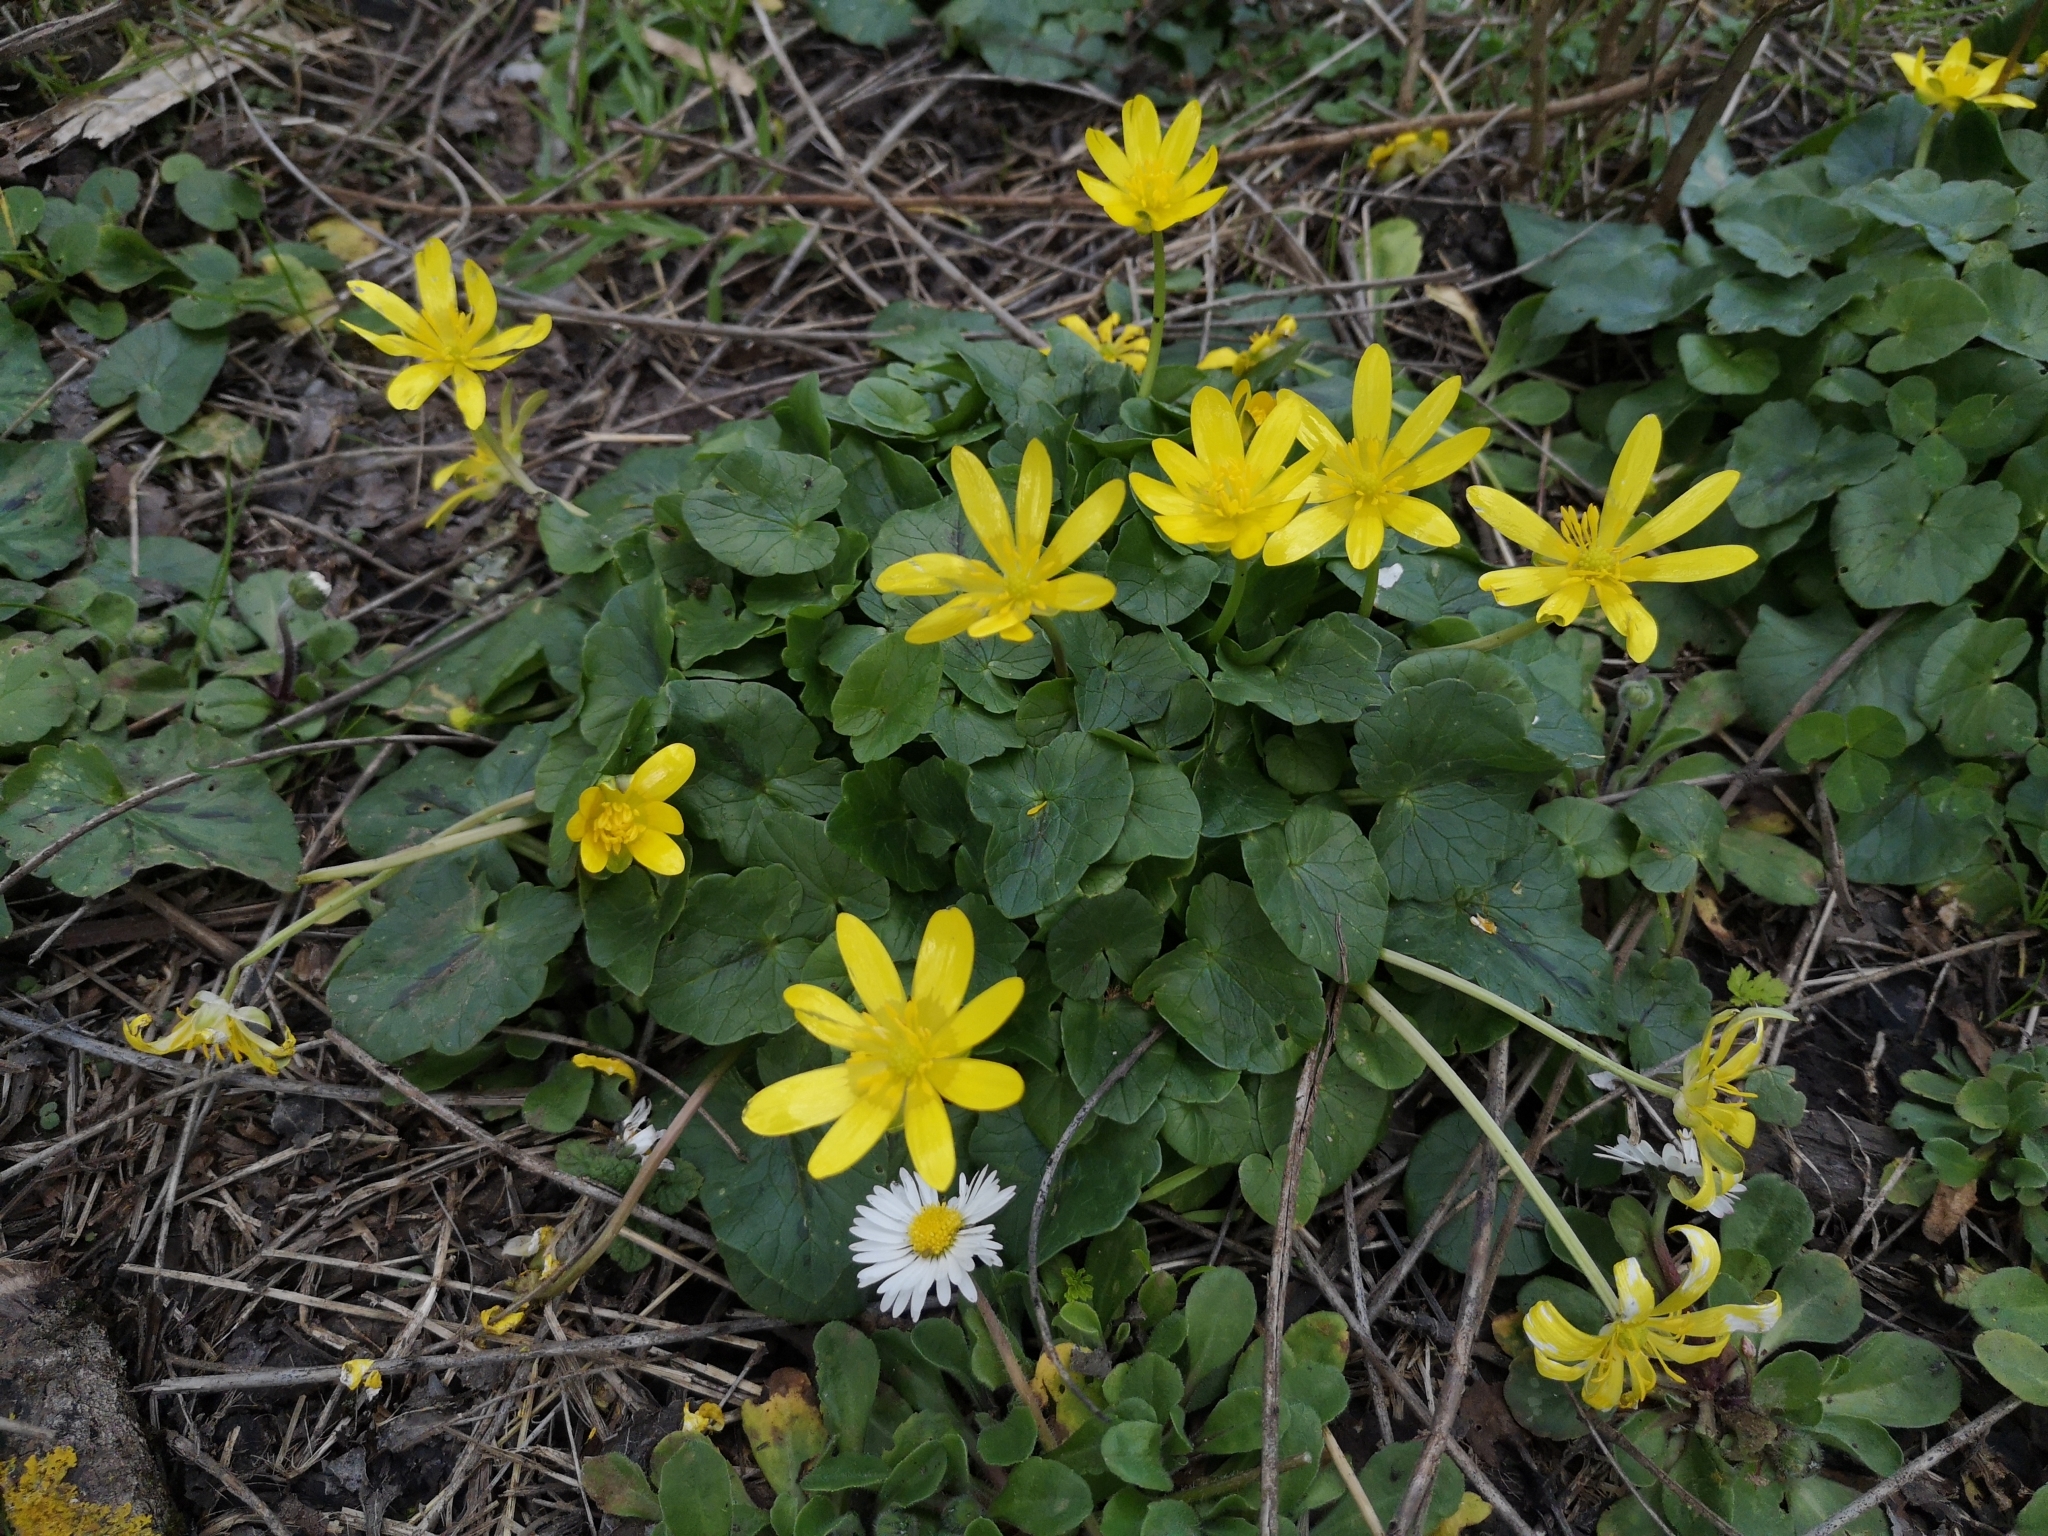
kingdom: Plantae
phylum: Tracheophyta
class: Magnoliopsida
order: Ranunculales
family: Ranunculaceae
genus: Ficaria
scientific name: Ficaria verna
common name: Lesser celandine
